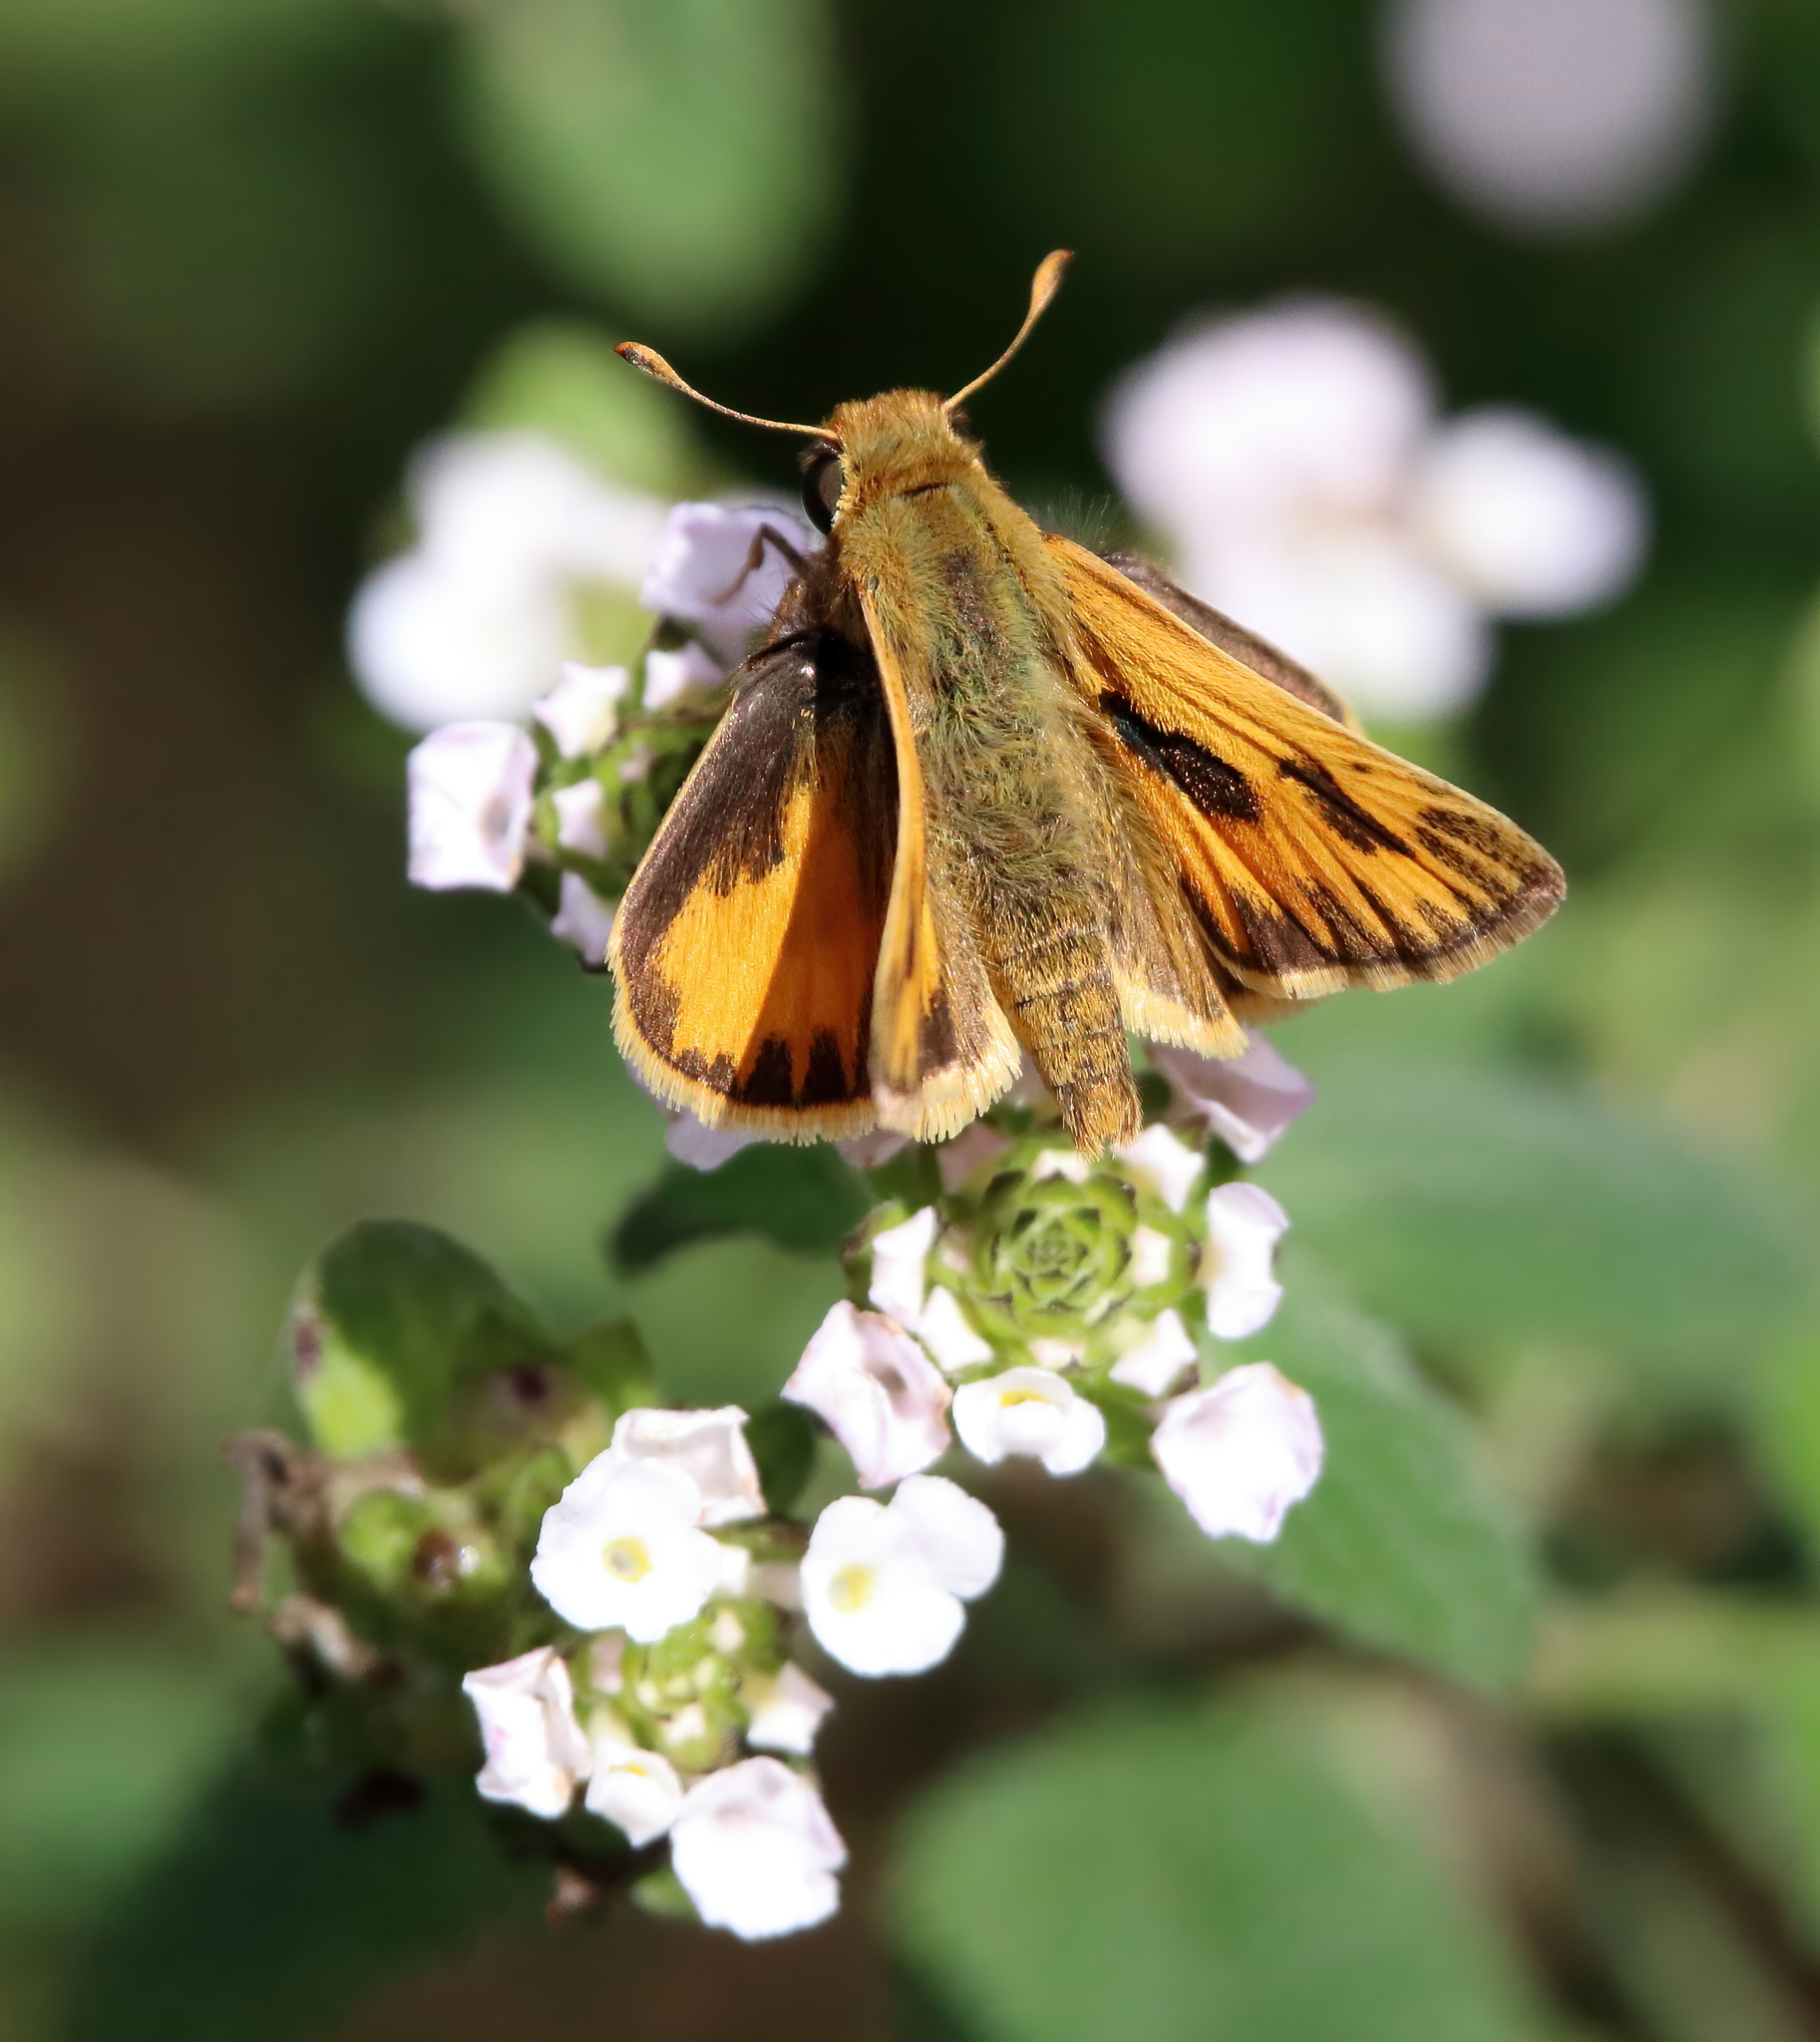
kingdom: Animalia
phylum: Arthropoda
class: Insecta
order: Lepidoptera
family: Hesperiidae
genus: Hylephila
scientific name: Hylephila phyleus
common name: Fiery skipper
